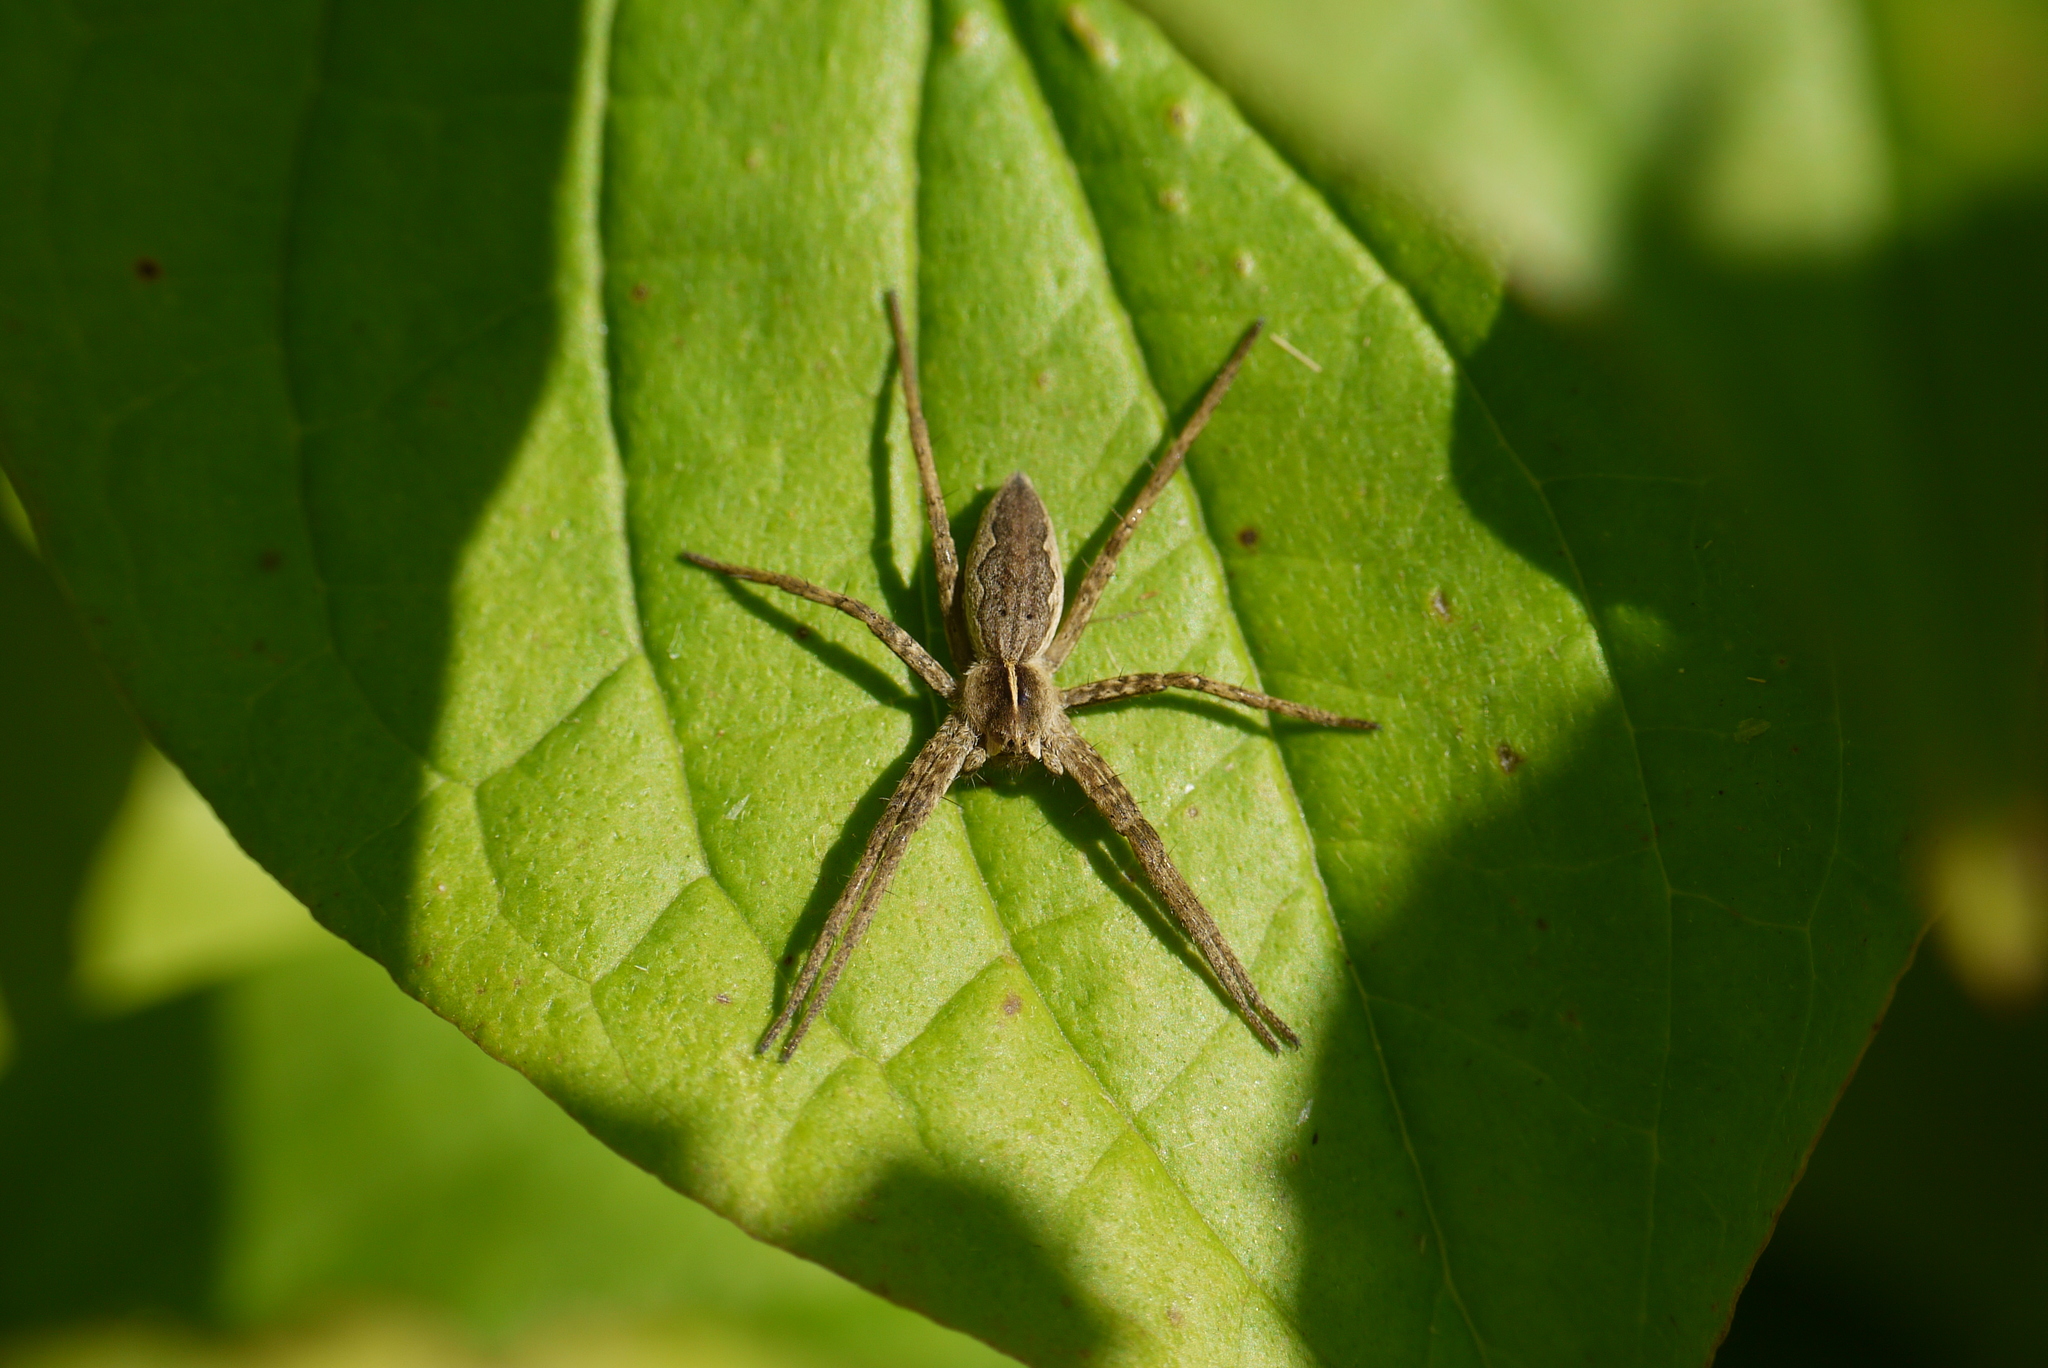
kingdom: Animalia
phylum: Arthropoda
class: Arachnida
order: Araneae
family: Pisauridae
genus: Pisaura
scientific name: Pisaura mirabilis
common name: Tent spider
